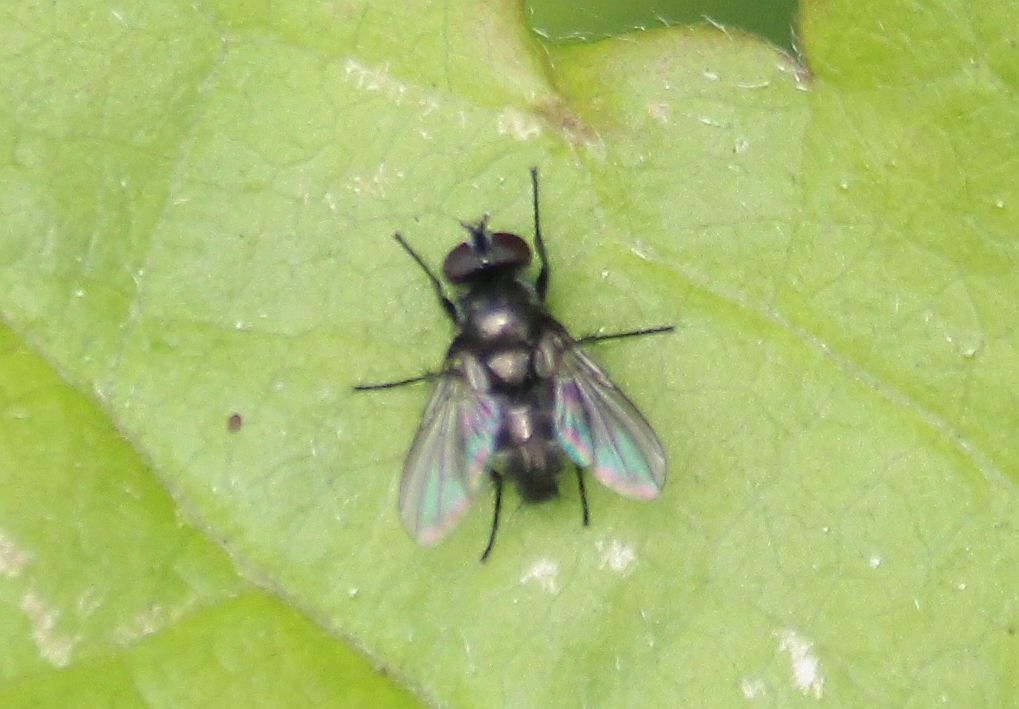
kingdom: Animalia
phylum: Arthropoda
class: Insecta
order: Diptera
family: Calliphoridae
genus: Rhinophora
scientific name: Rhinophora lepida
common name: Pouting woodlouse-fly
